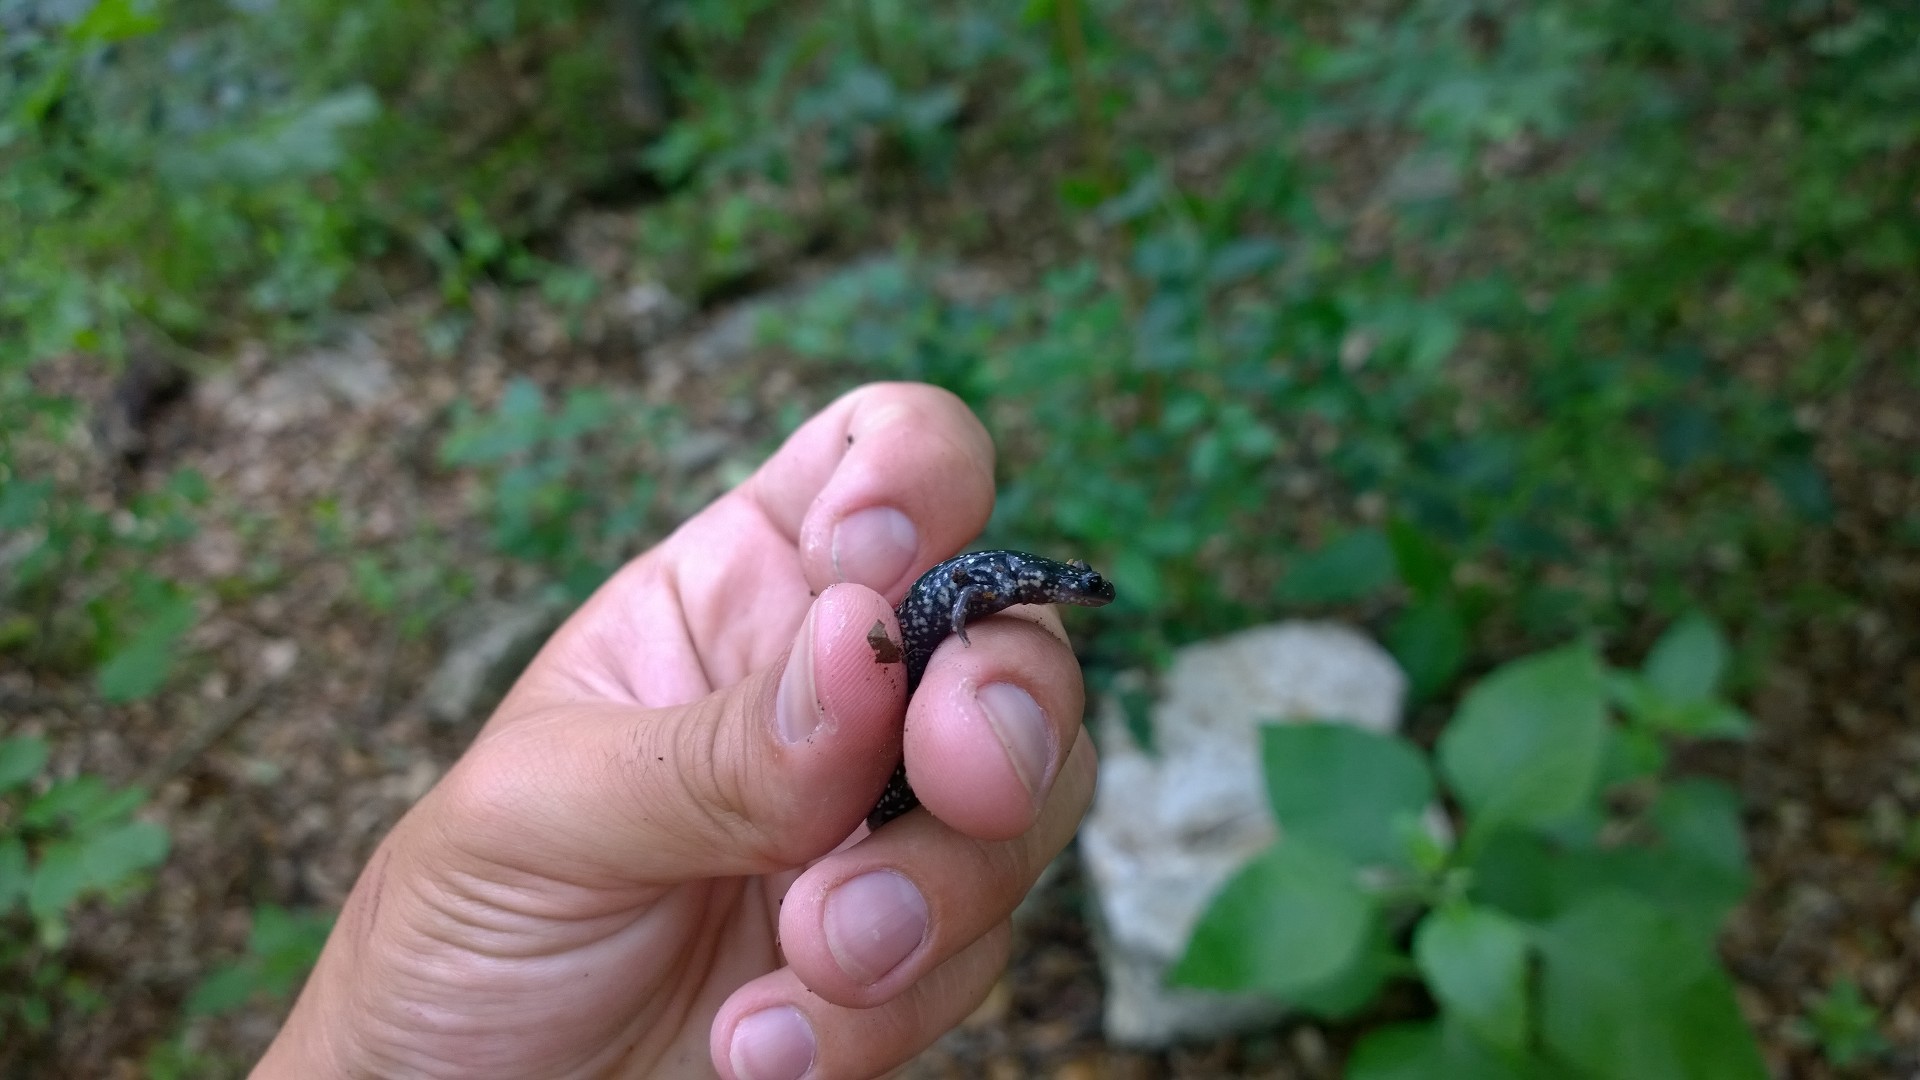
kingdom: Animalia
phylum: Chordata
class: Amphibia
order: Caudata
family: Plethodontidae
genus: Plethodon
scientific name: Plethodon albagula
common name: Western slimy salamander
